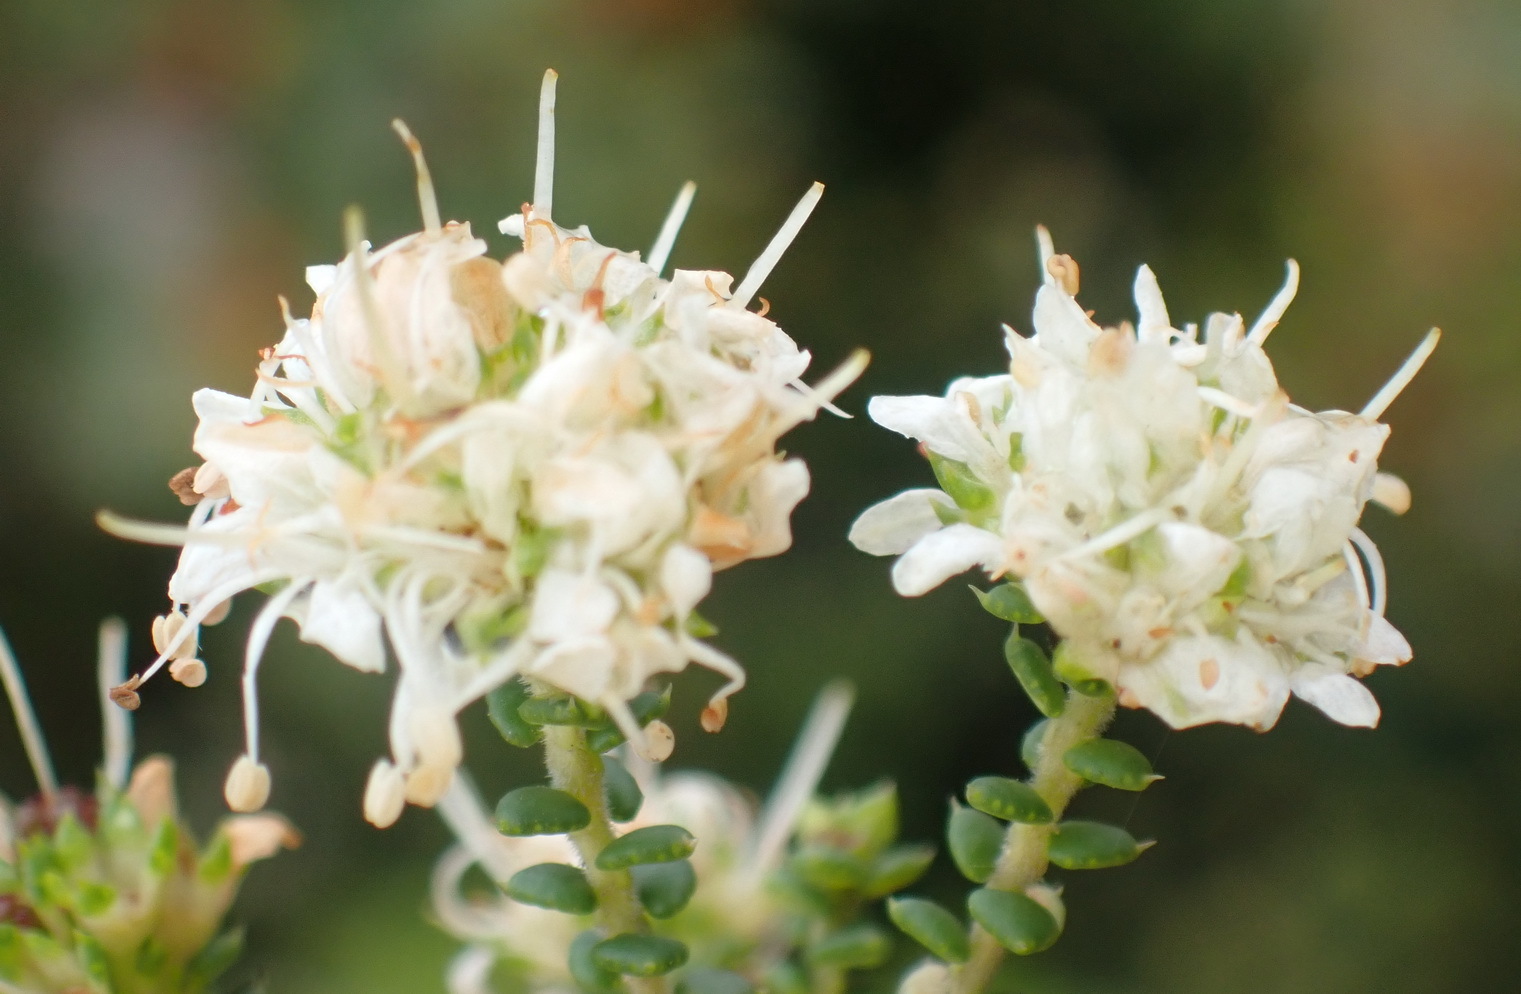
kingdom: Plantae
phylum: Tracheophyta
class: Magnoliopsida
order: Sapindales
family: Rutaceae
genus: Agathosma
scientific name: Agathosma apiculata
